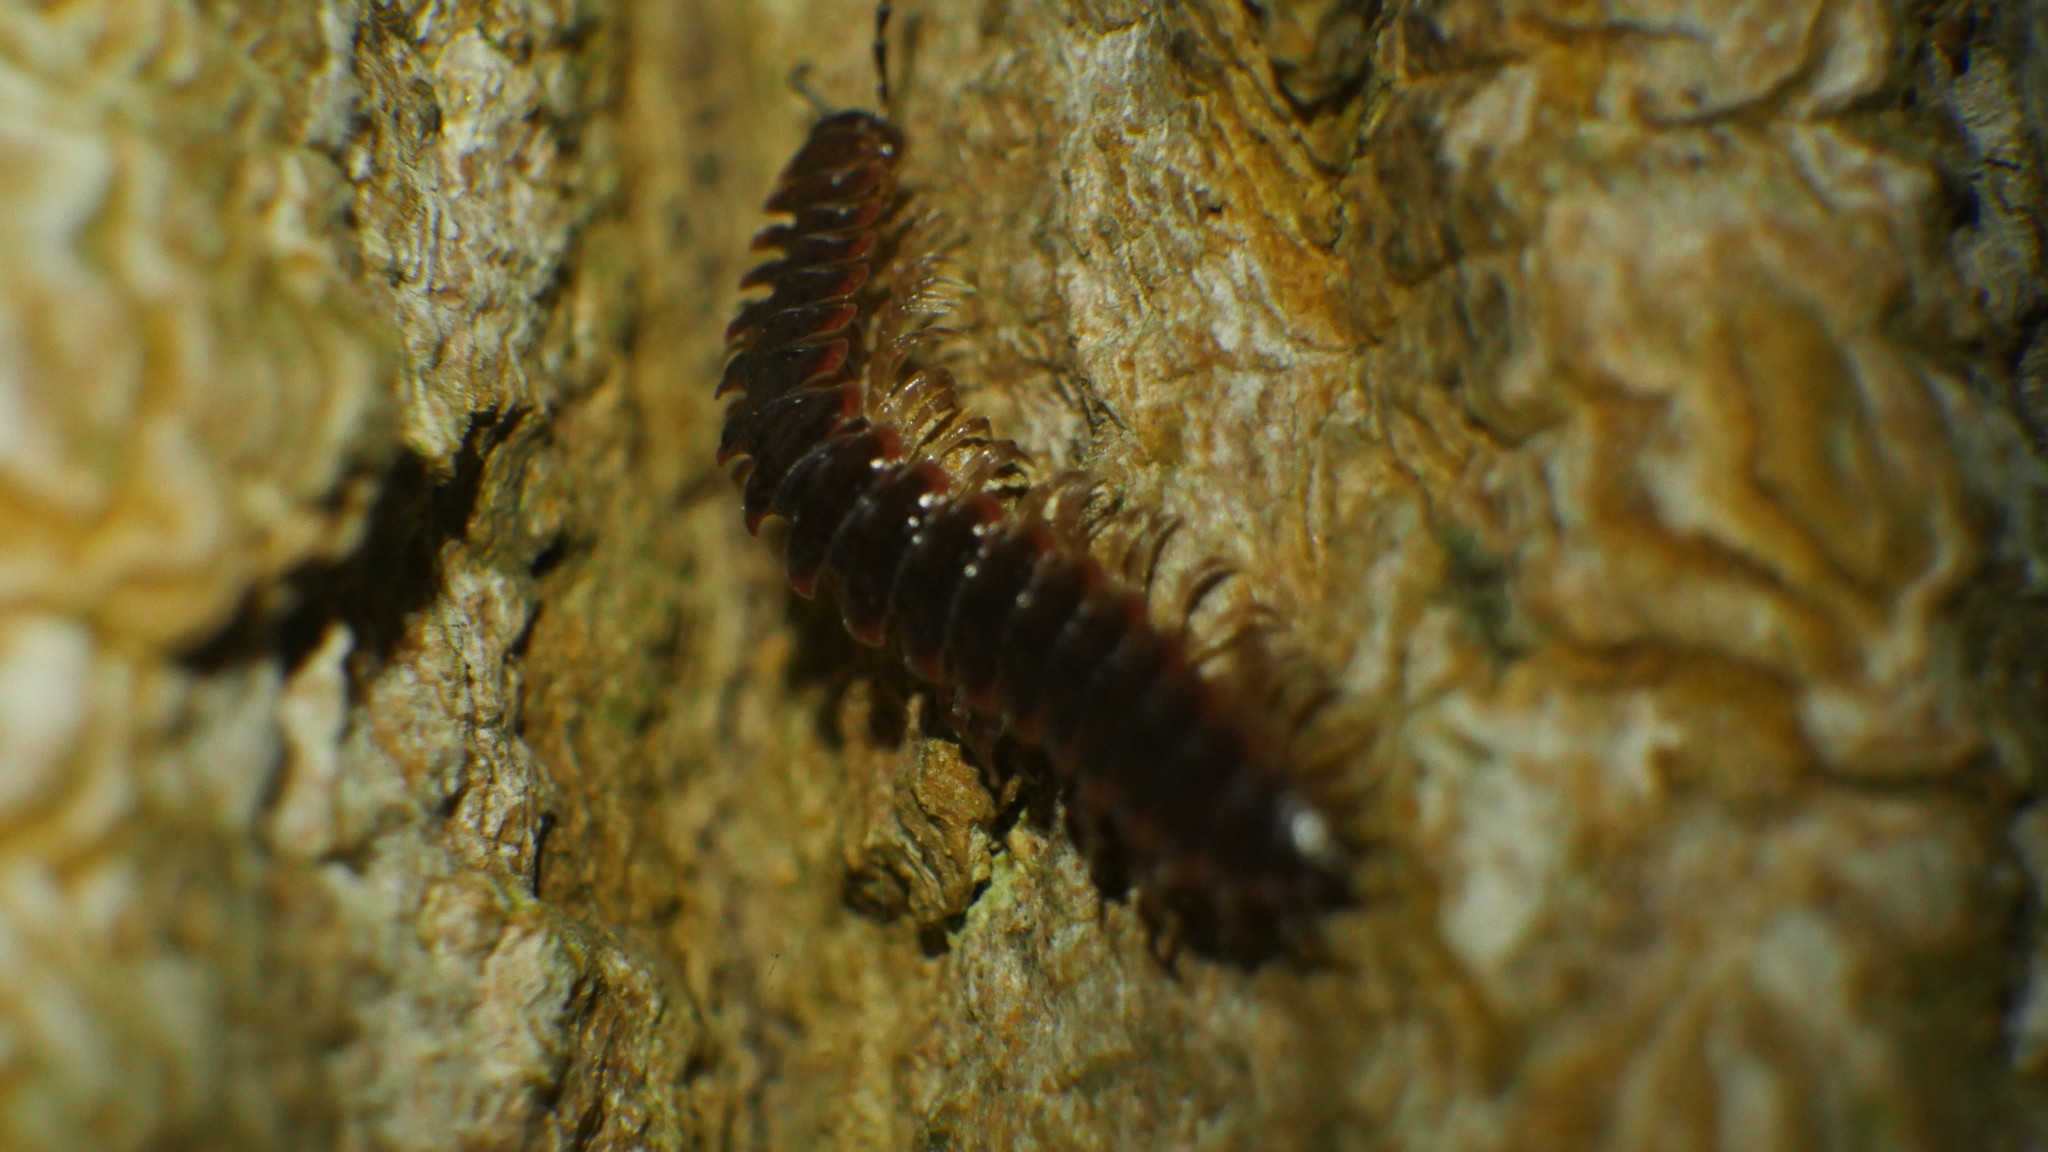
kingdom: Animalia
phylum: Arthropoda
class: Diplopoda
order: Polydesmida
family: Polydesmidae
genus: Pseudopolydesmus
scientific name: Pseudopolydesmus serratus
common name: Common pink flat-back millipede
